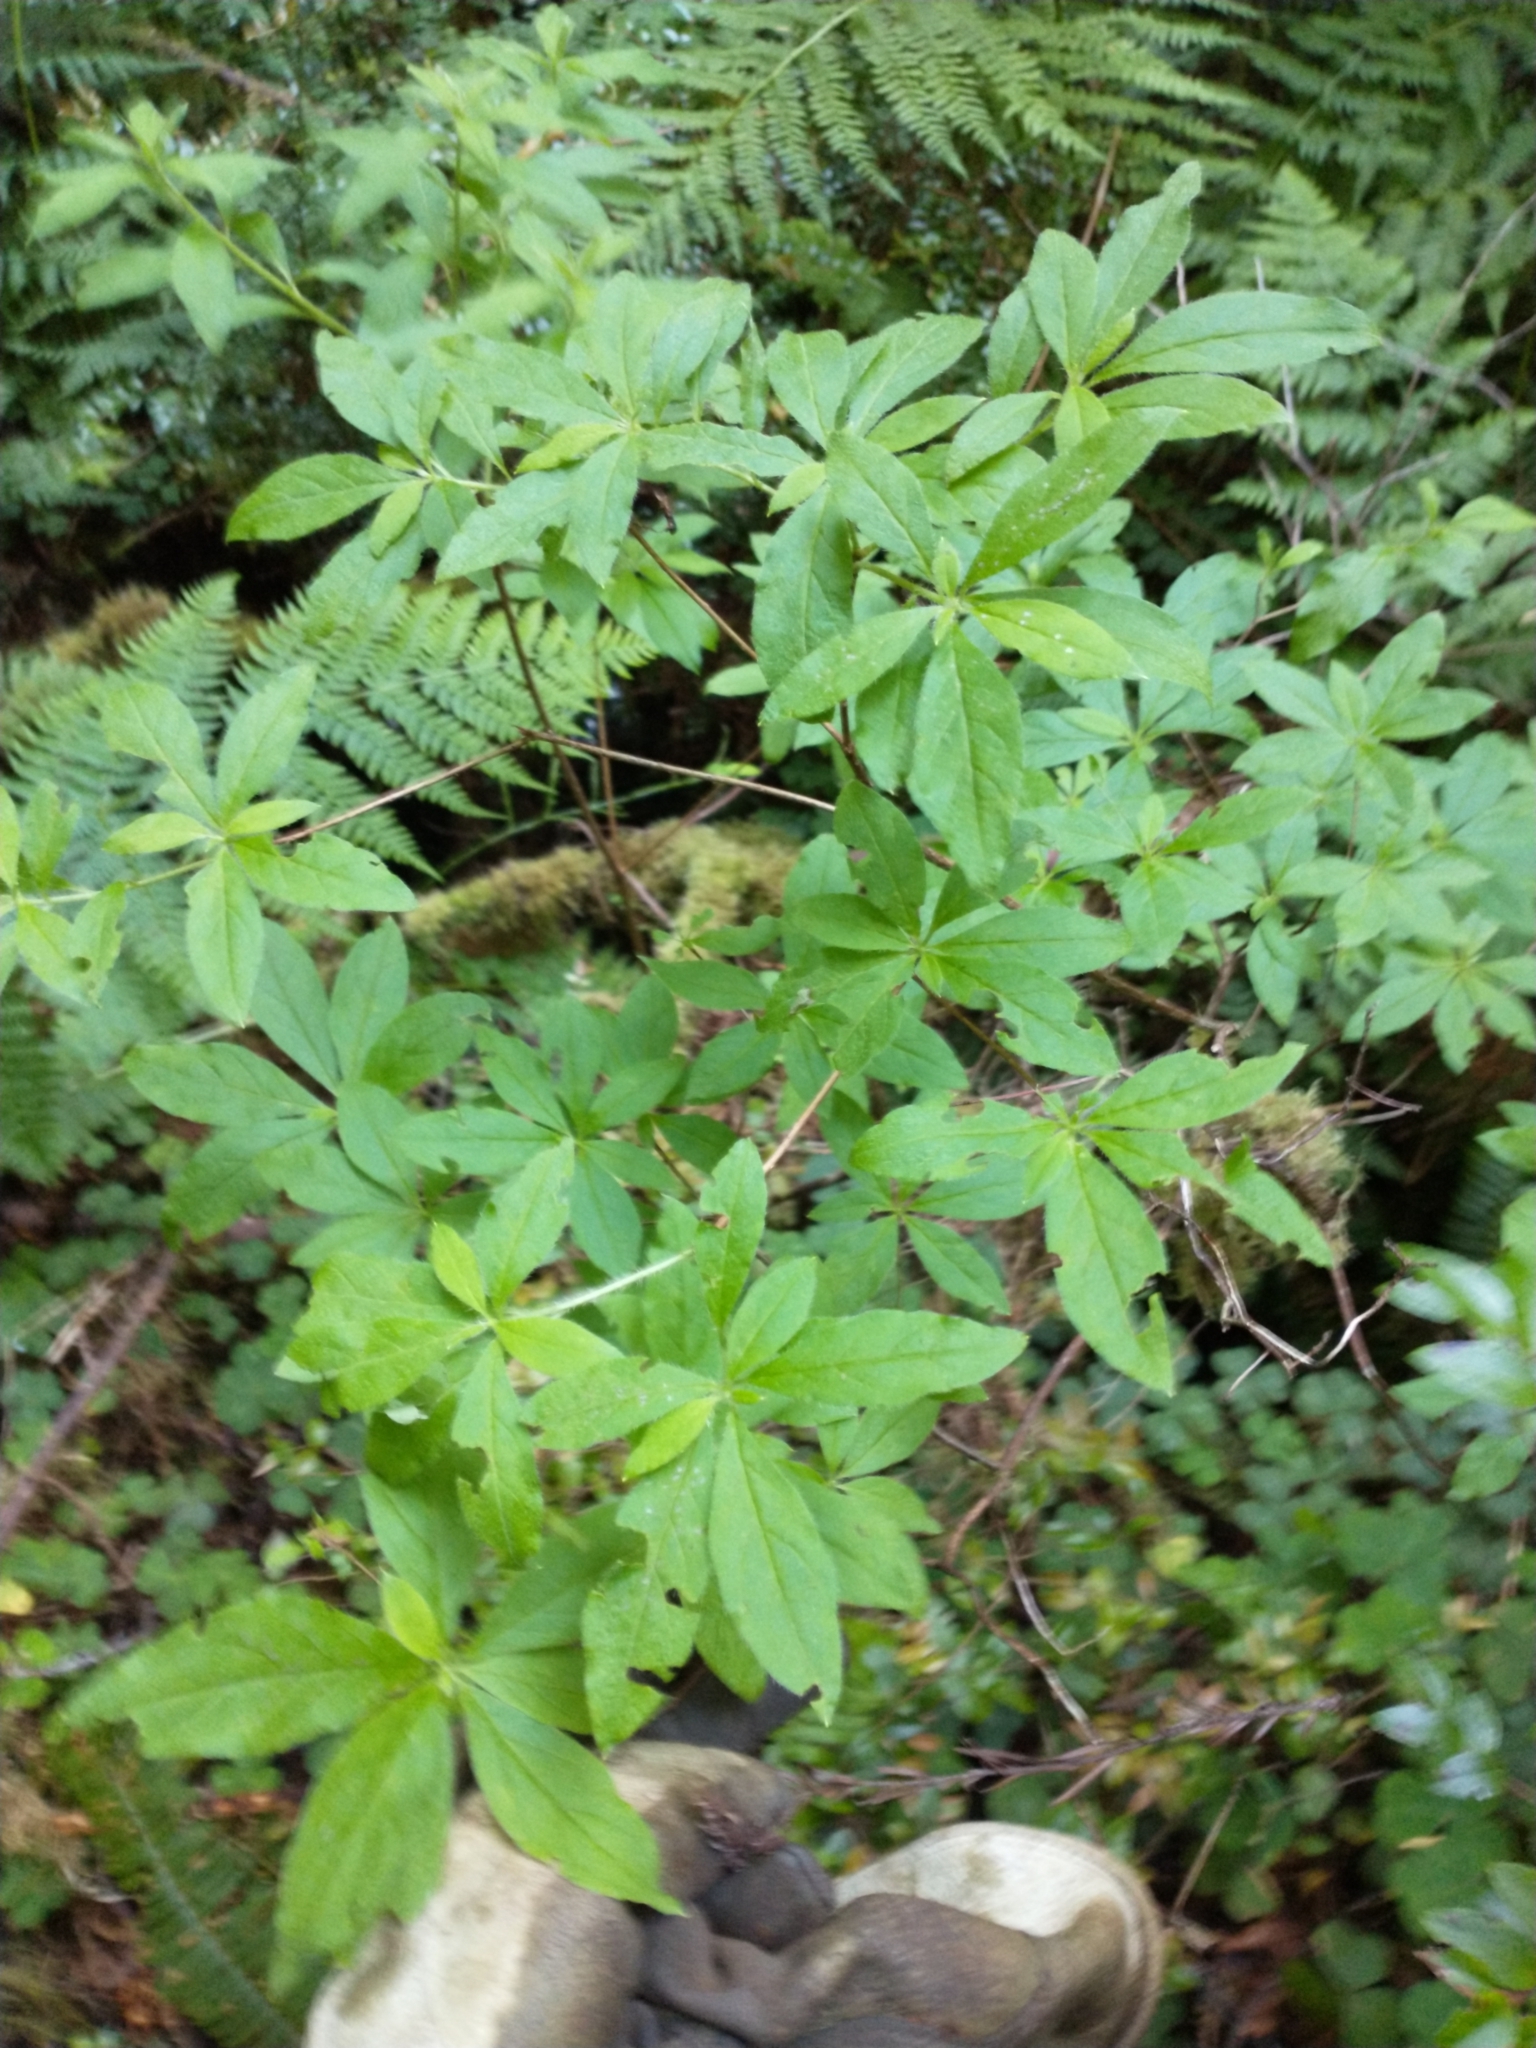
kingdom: Plantae
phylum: Tracheophyta
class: Magnoliopsida
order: Ericales
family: Ericaceae
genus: Rhododendron
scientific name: Rhododendron menziesii
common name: Pacific menziesia
